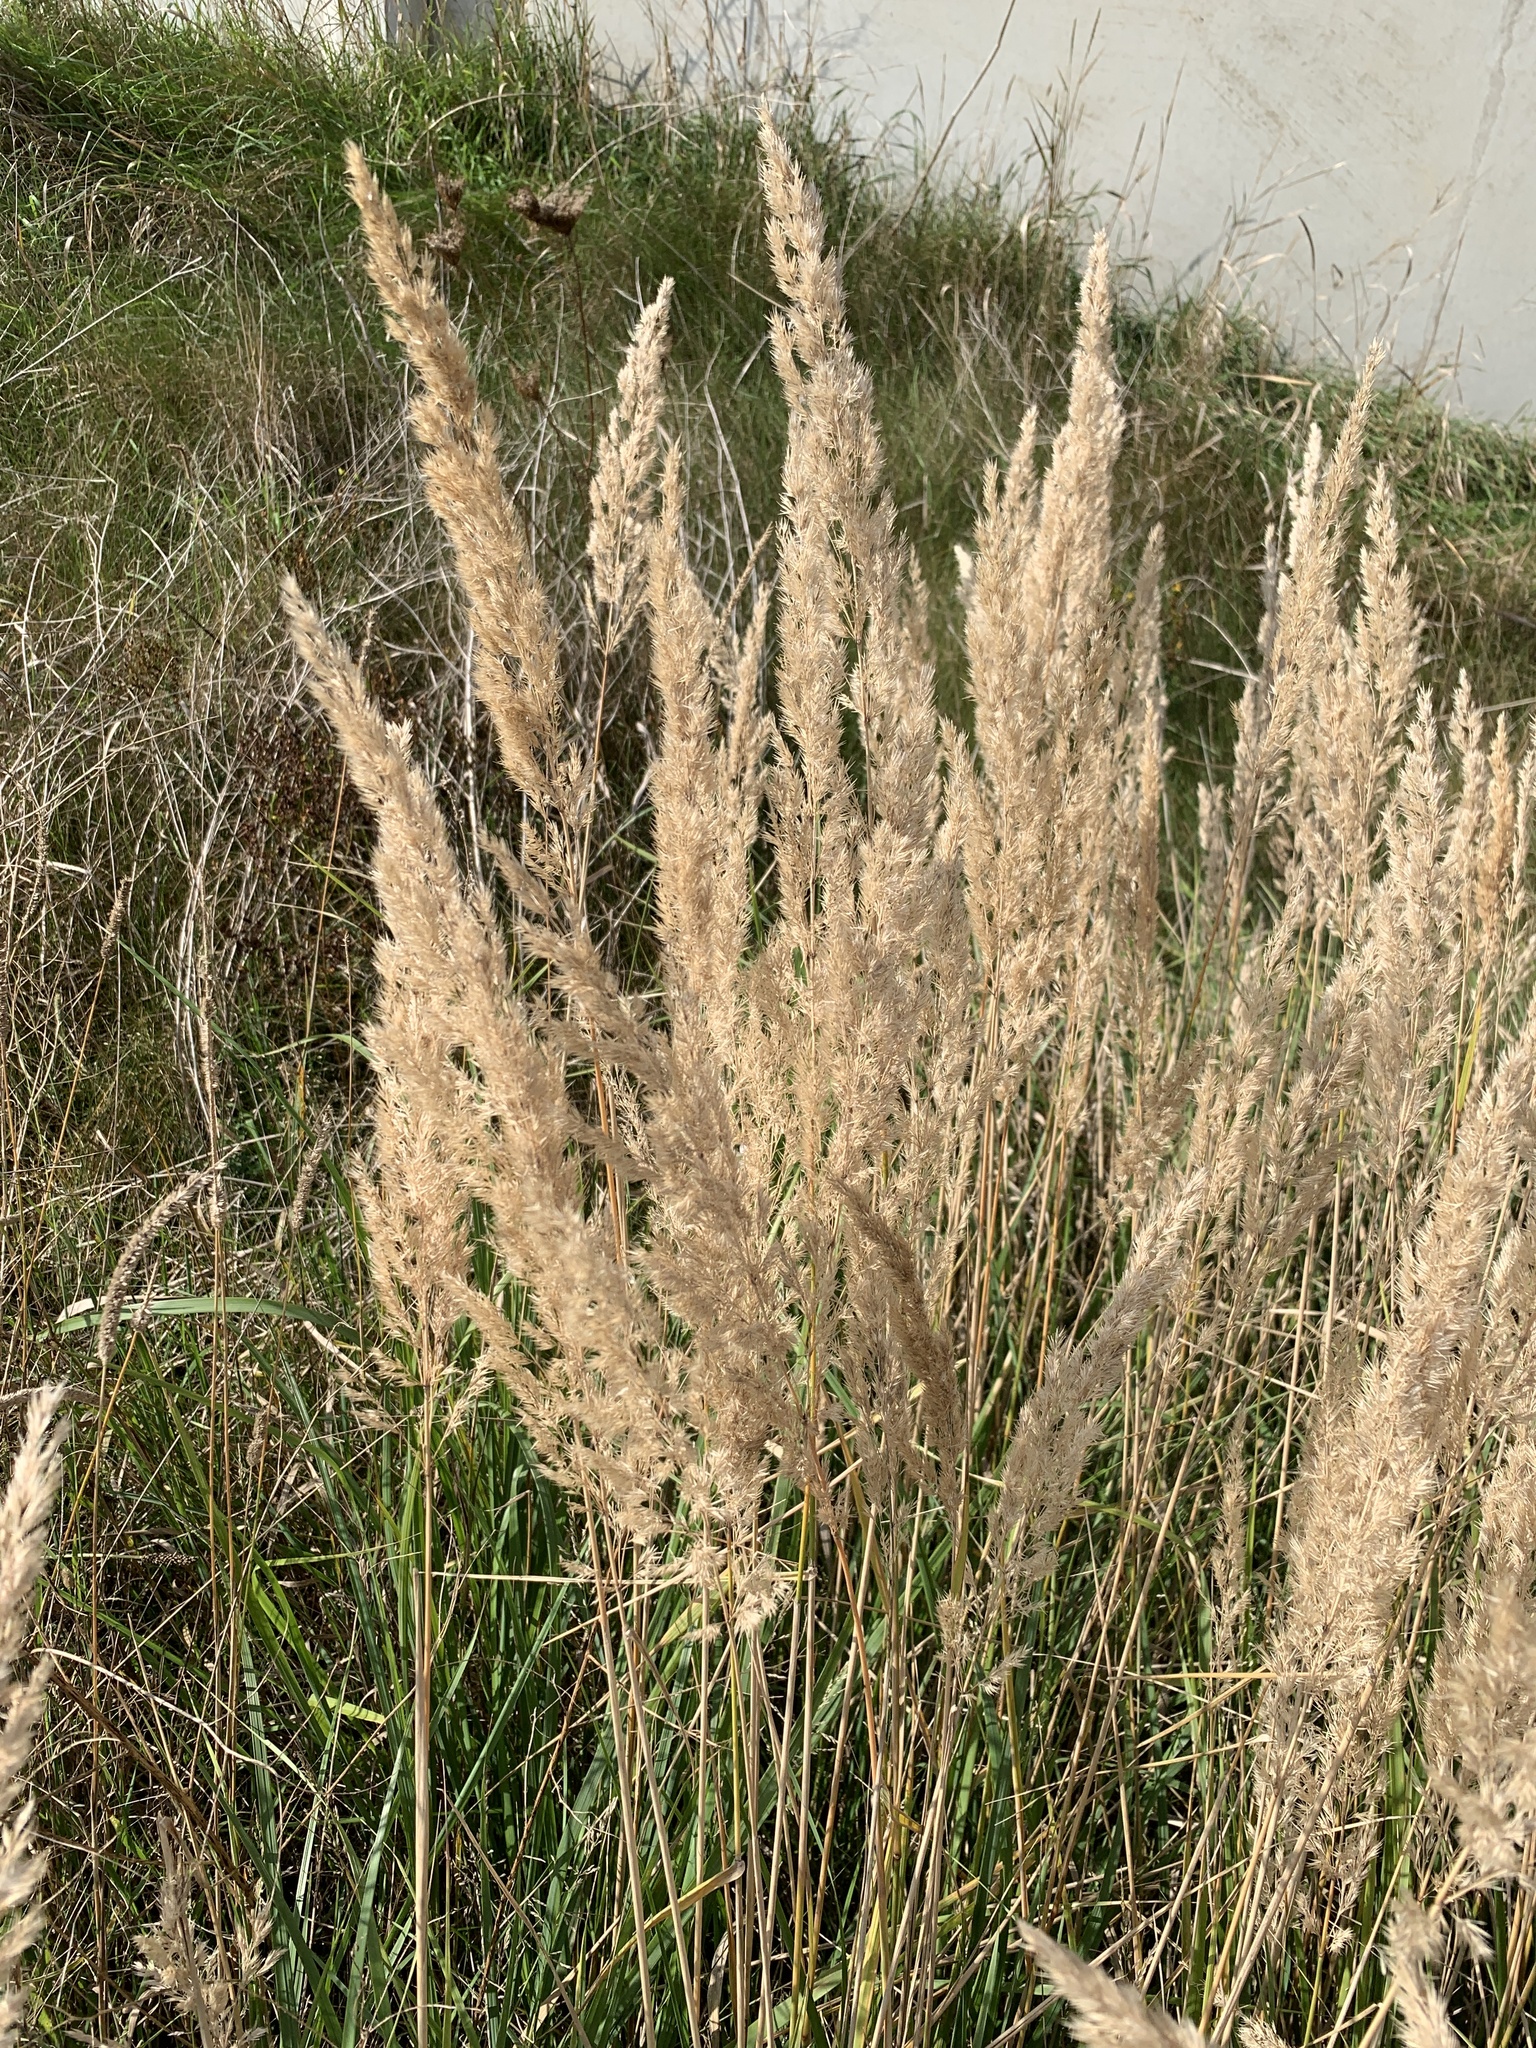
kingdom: Plantae
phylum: Tracheophyta
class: Liliopsida
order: Poales
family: Poaceae
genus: Calamagrostis
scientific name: Calamagrostis epigejos
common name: Wood small-reed
